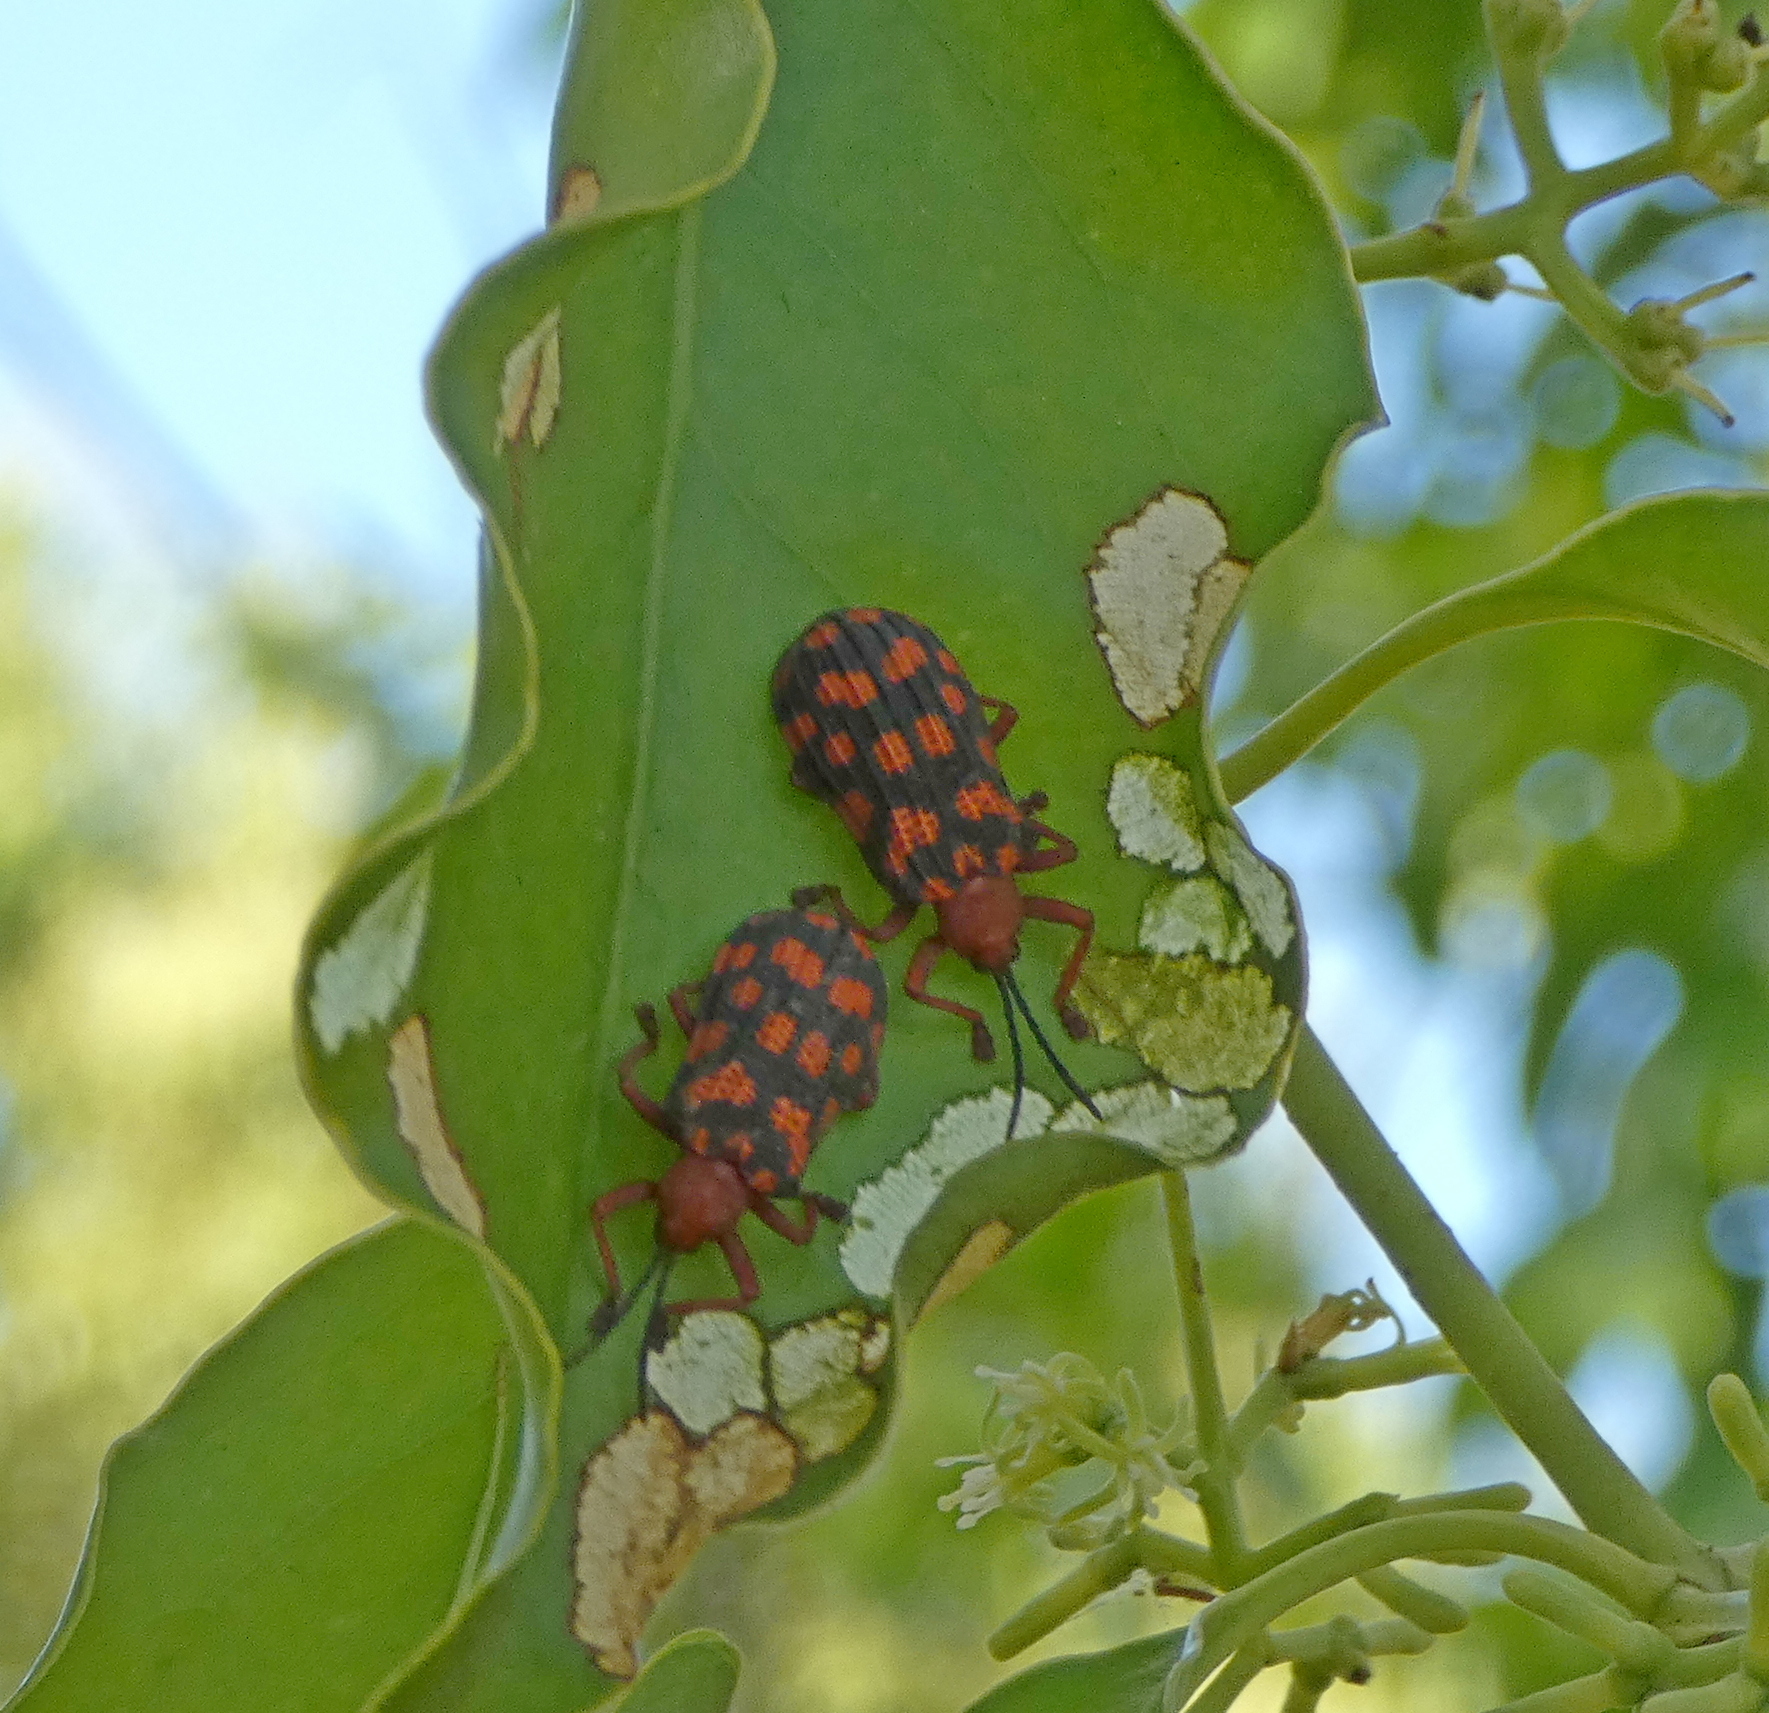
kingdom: Animalia
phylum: Arthropoda
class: Insecta
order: Coleoptera
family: Chrysomelidae
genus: Sceloenopla
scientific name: Sceloenopla maculata
